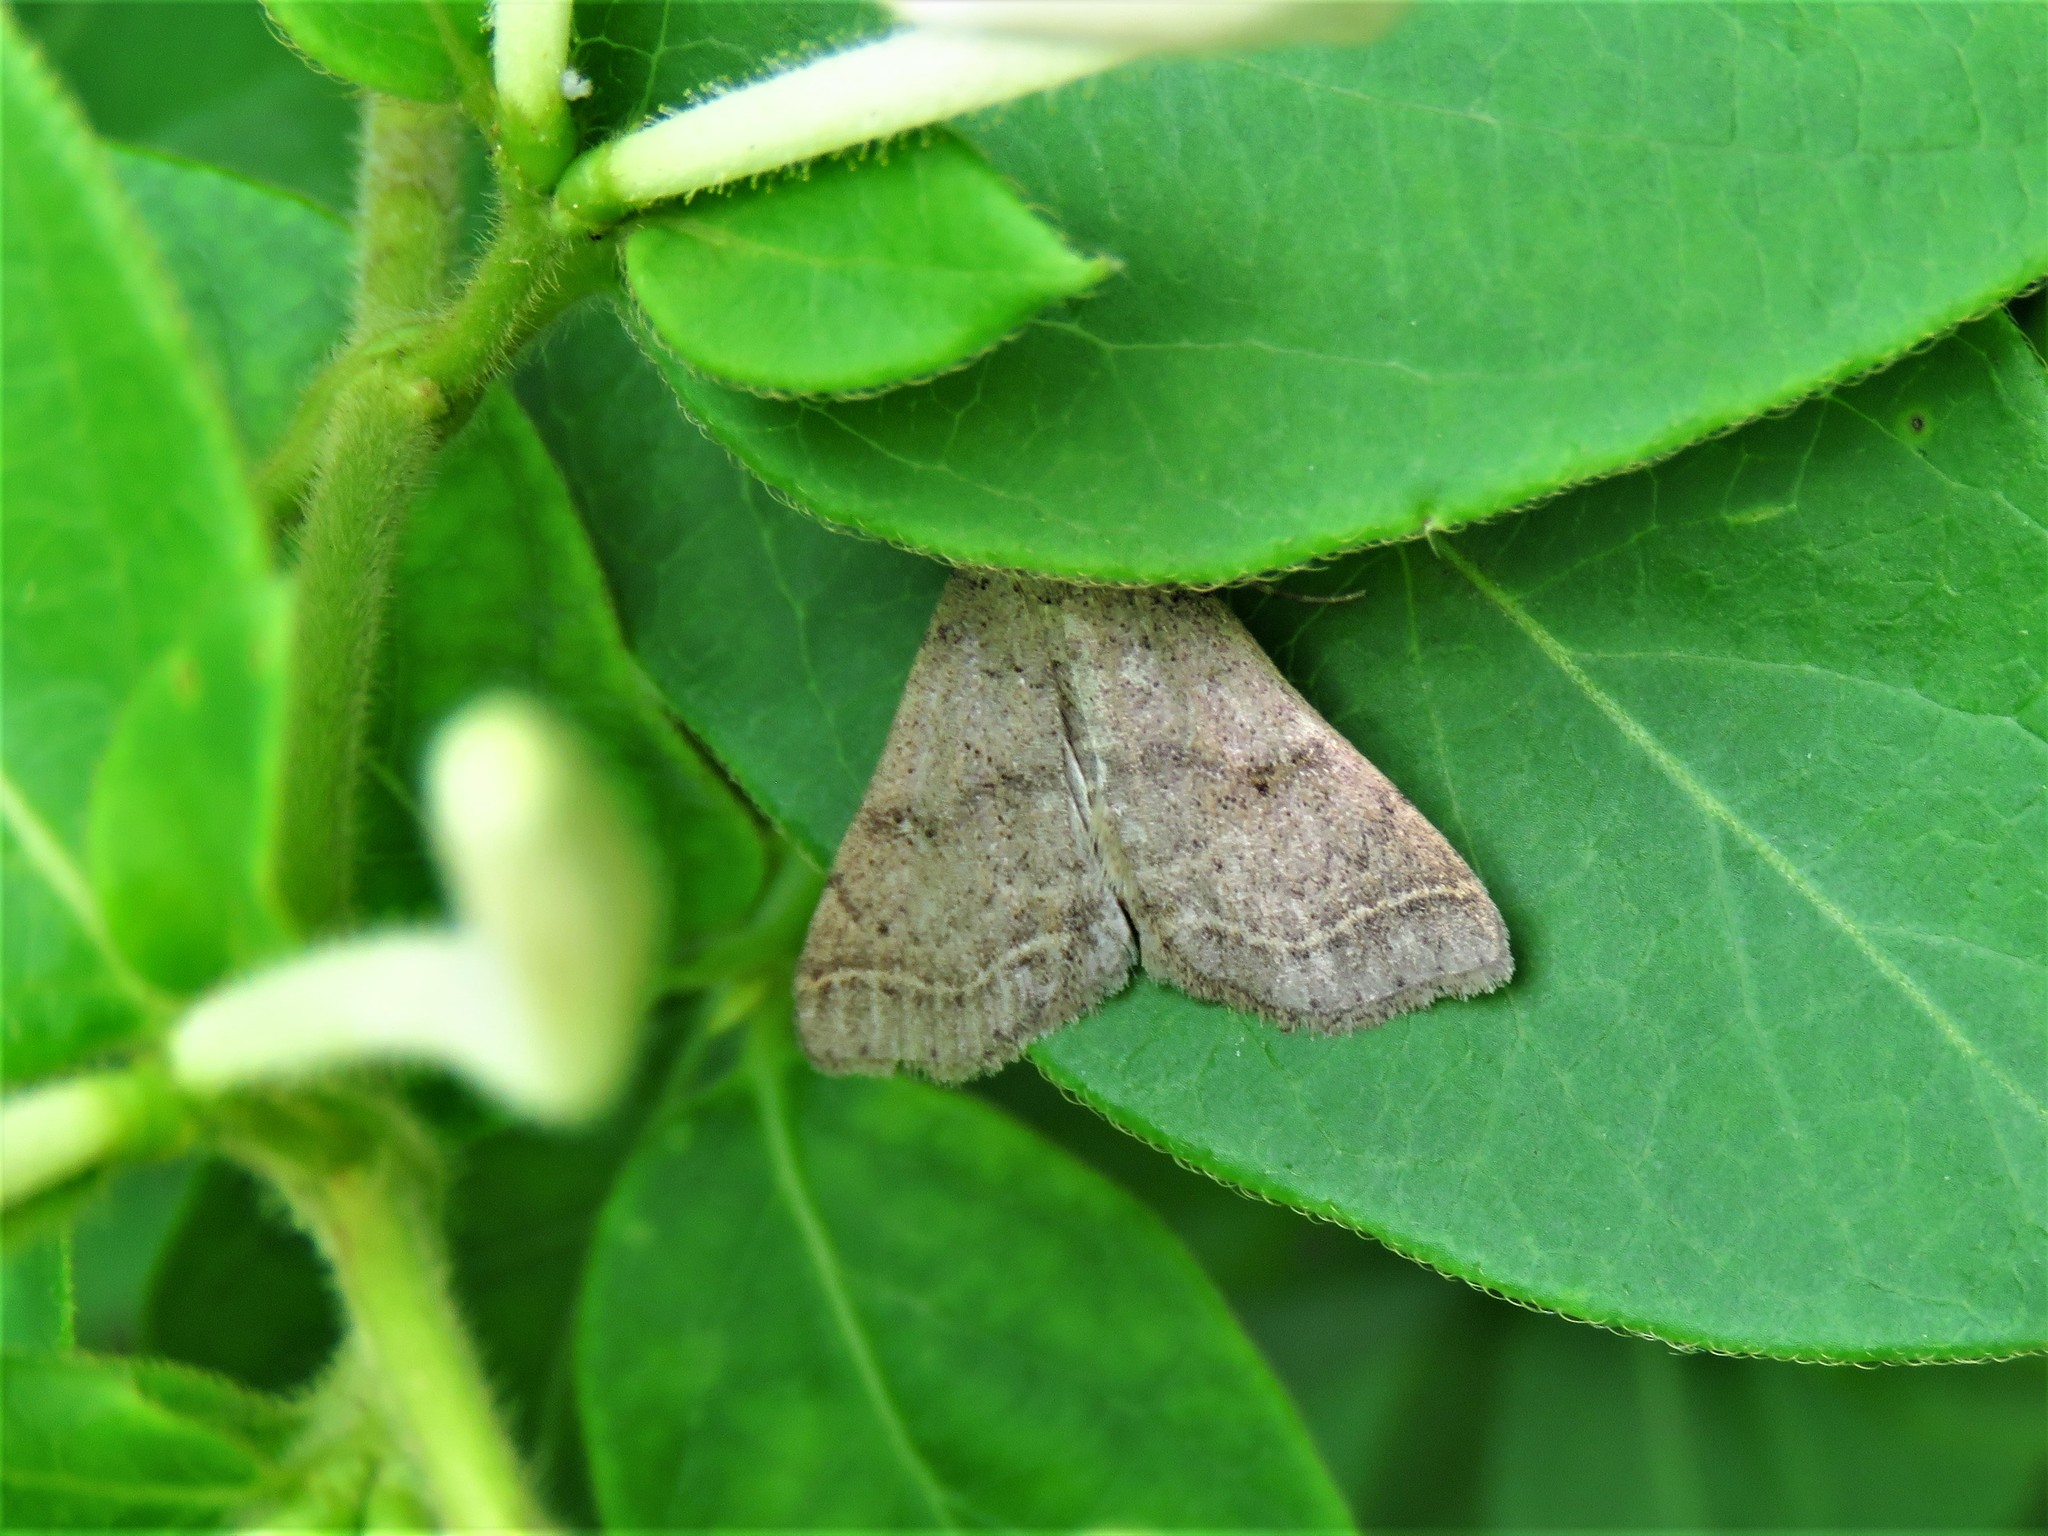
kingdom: Animalia
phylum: Arthropoda
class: Insecta
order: Lepidoptera
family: Erebidae
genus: Bleptina
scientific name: Bleptina caradrinalis
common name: Bent-winged owlet
